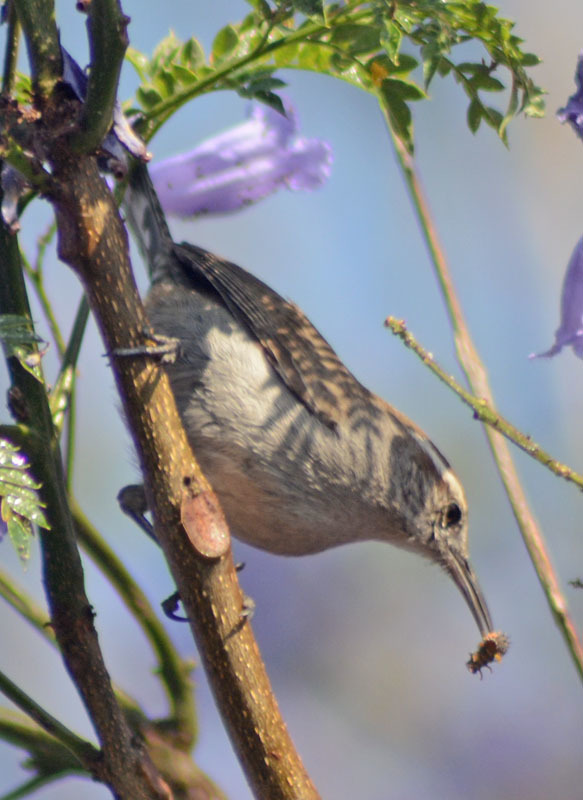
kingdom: Animalia
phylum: Chordata
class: Aves
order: Passeriformes
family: Troglodytidae
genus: Thryomanes
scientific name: Thryomanes bewickii
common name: Bewick's wren
